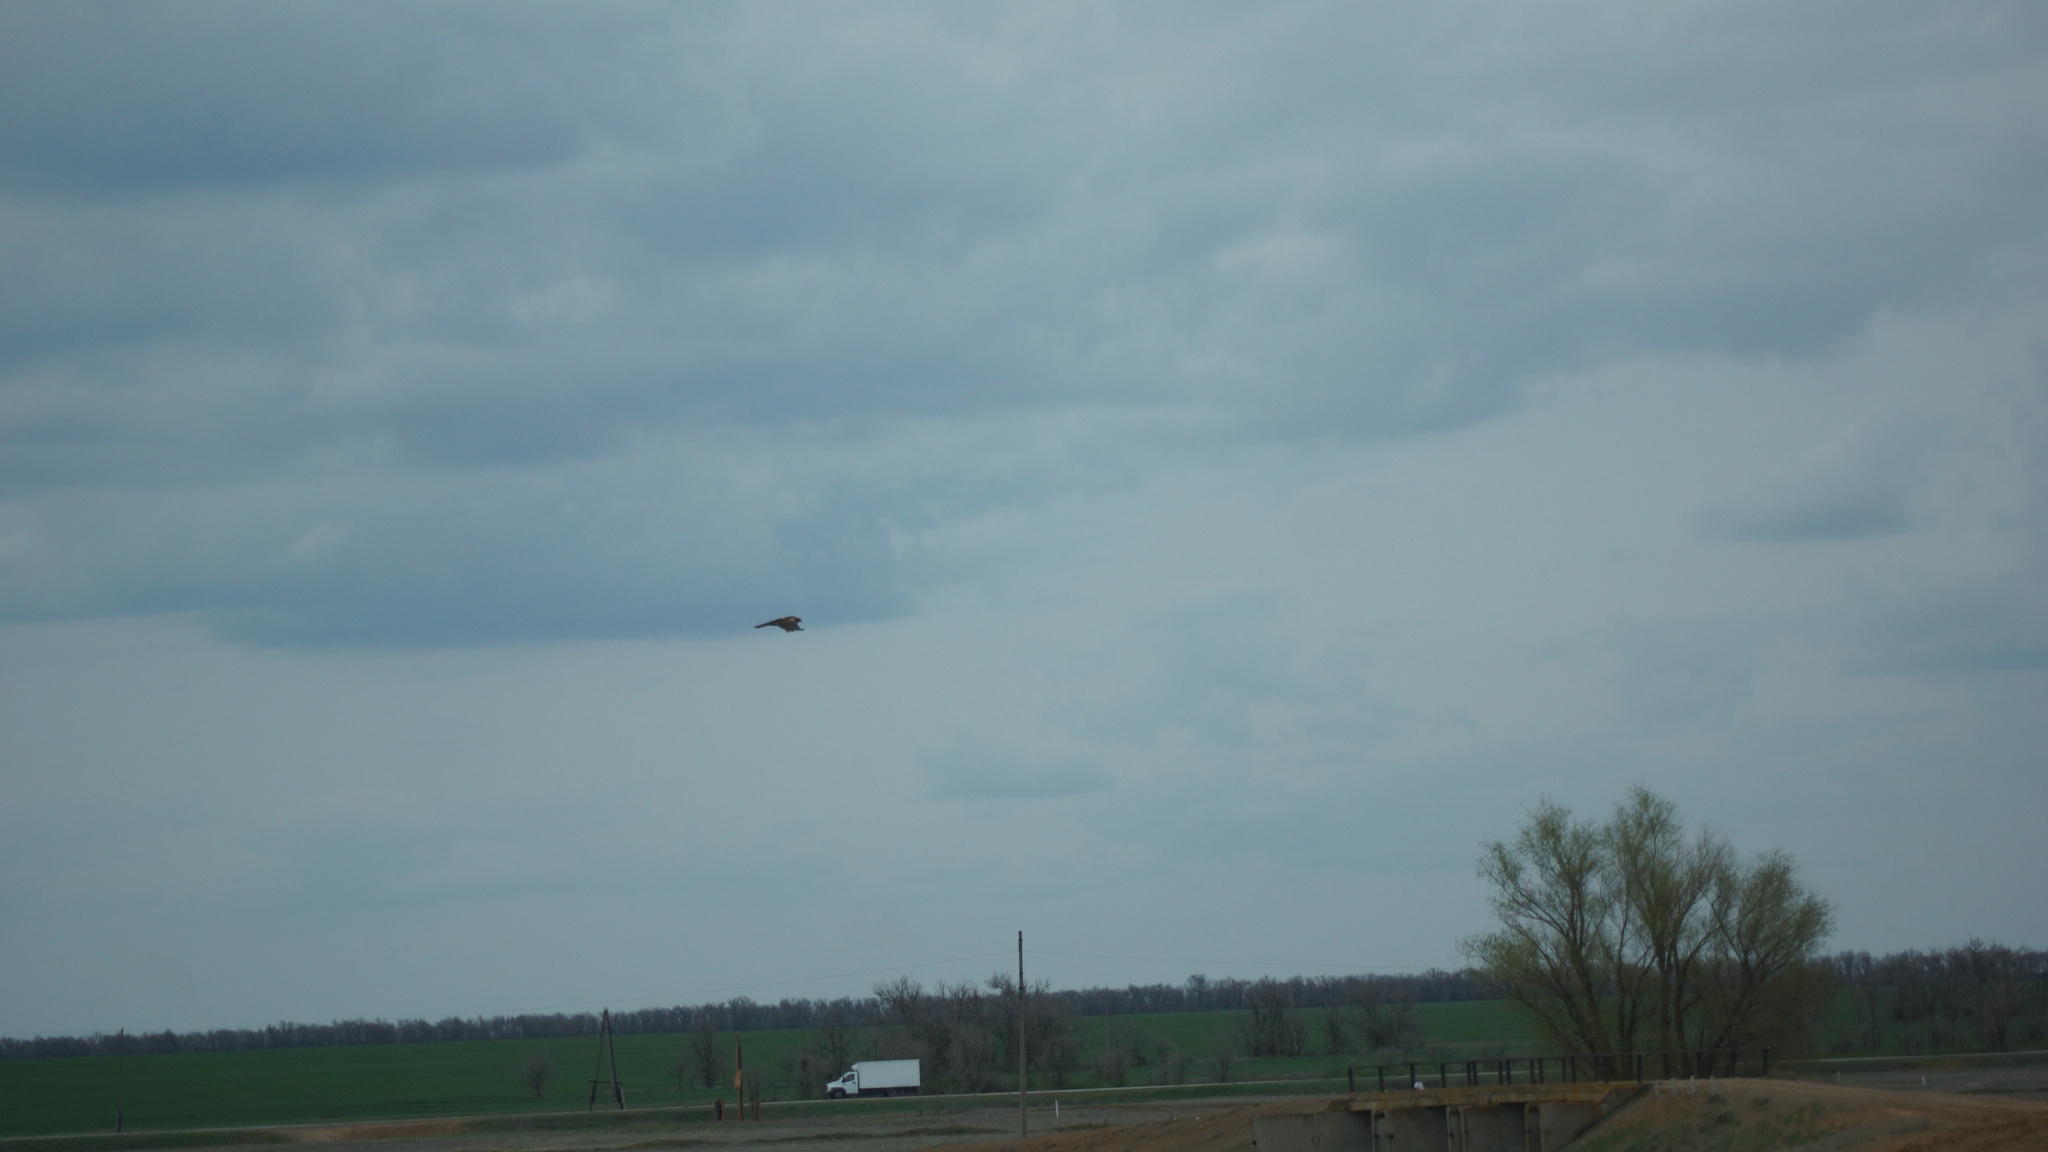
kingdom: Animalia
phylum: Chordata
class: Aves
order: Accipitriformes
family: Accipitridae
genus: Circus
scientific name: Circus aeruginosus
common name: Western marsh harrier
